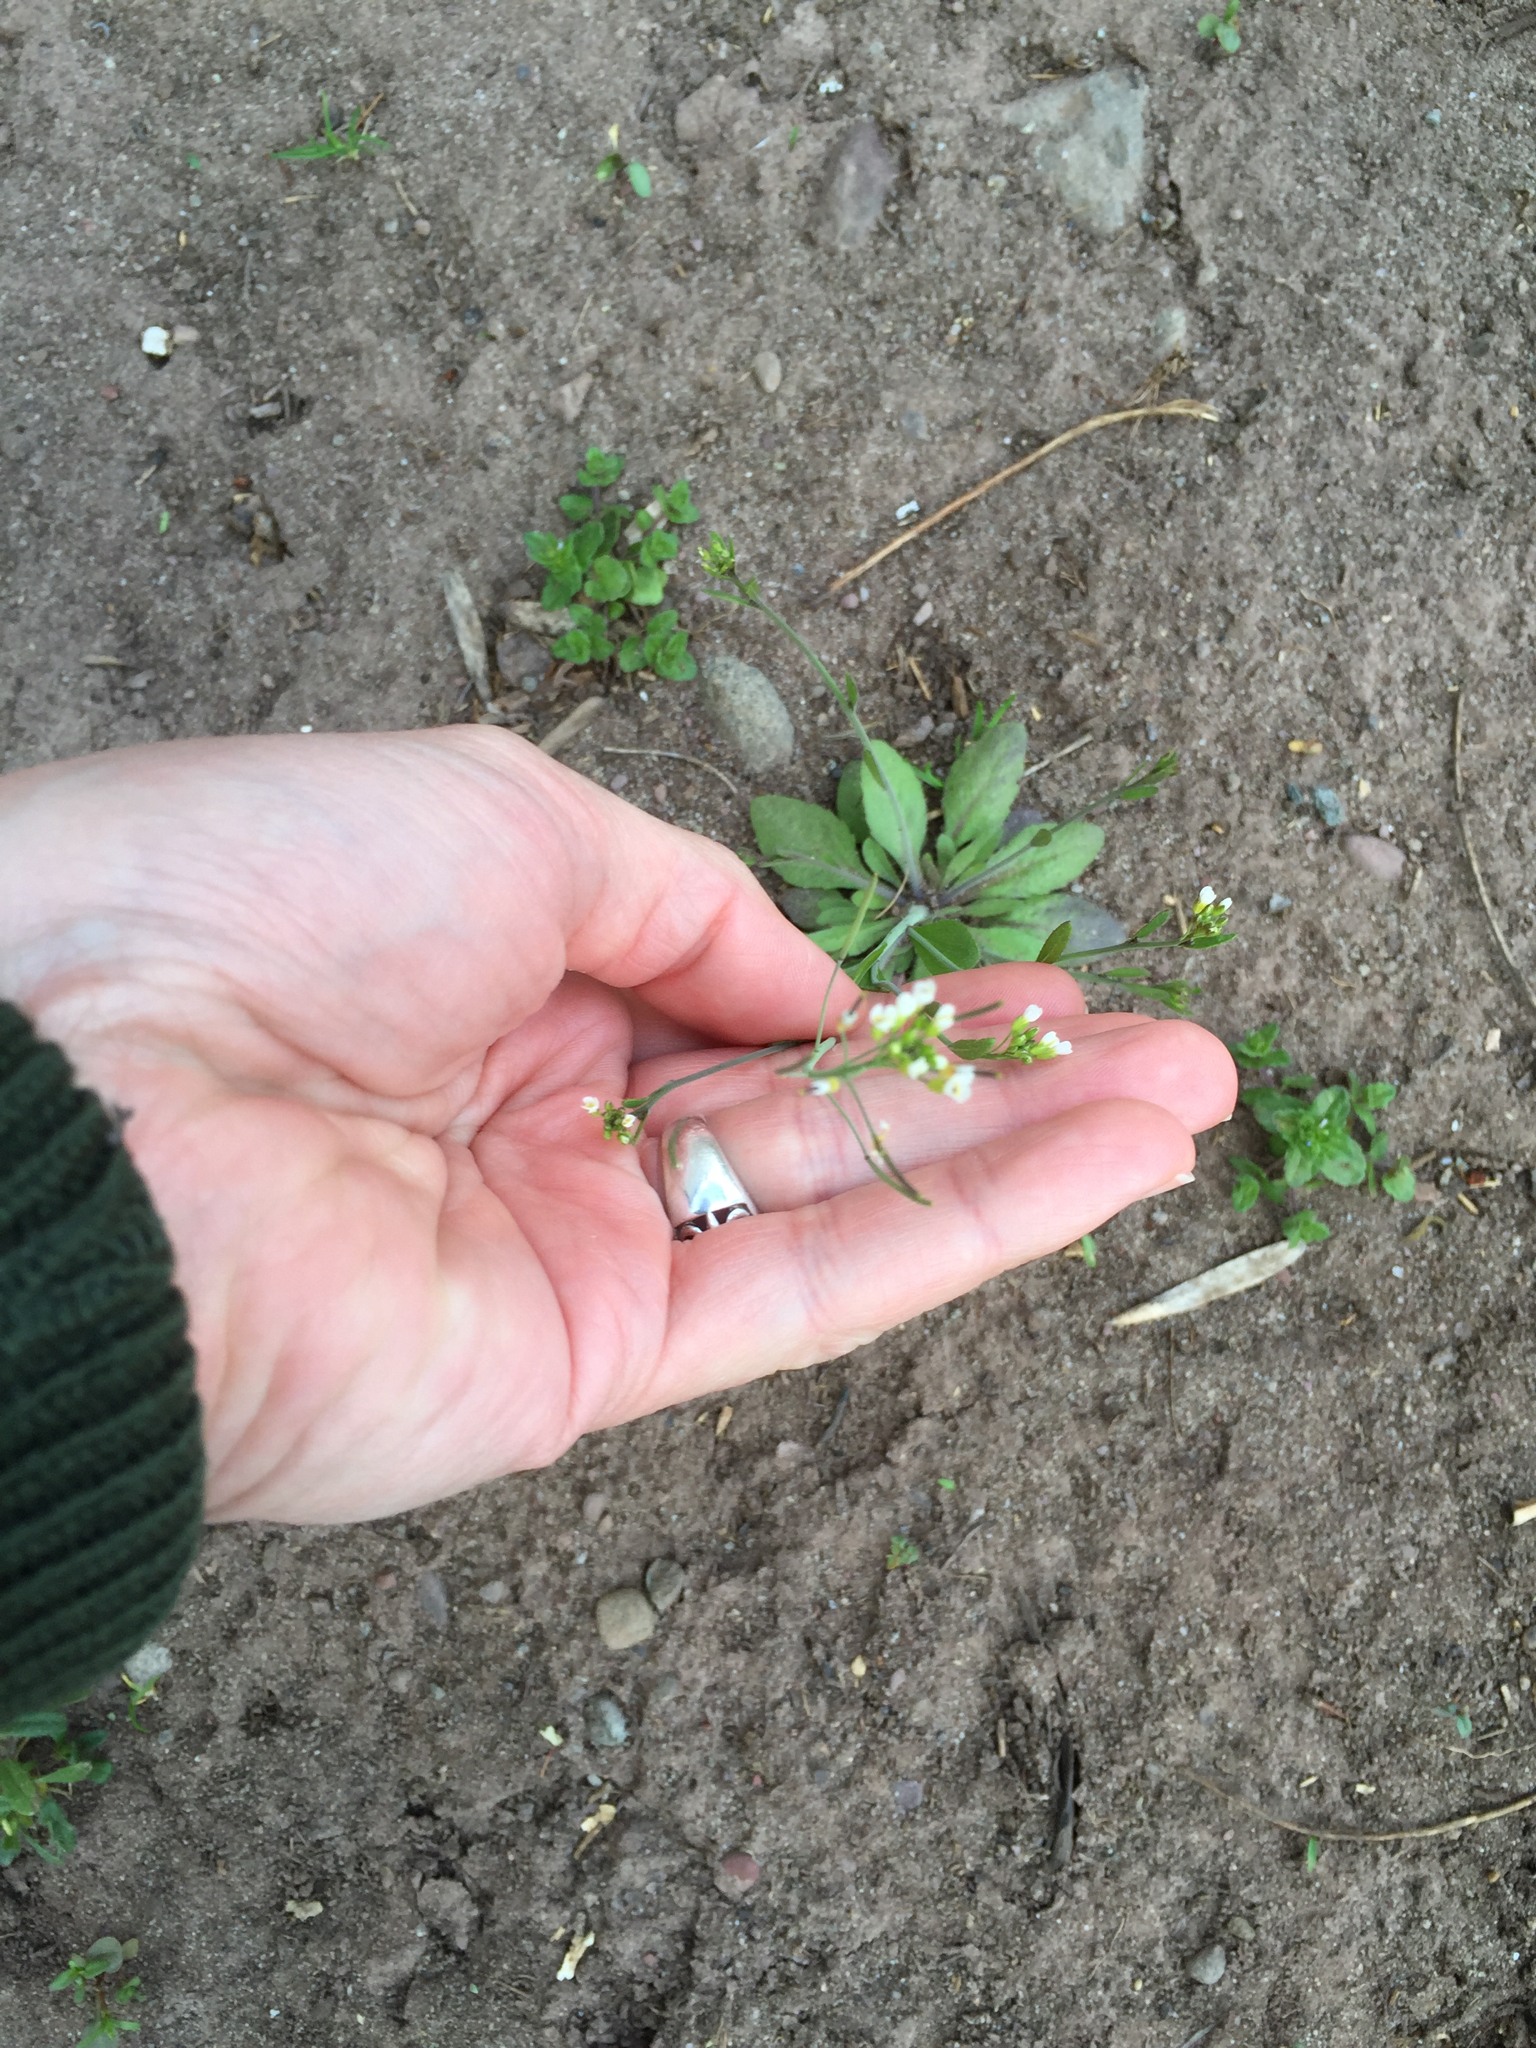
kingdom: Plantae
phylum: Tracheophyta
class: Magnoliopsida
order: Brassicales
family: Brassicaceae
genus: Draba
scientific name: Draba verna
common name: Spring draba
